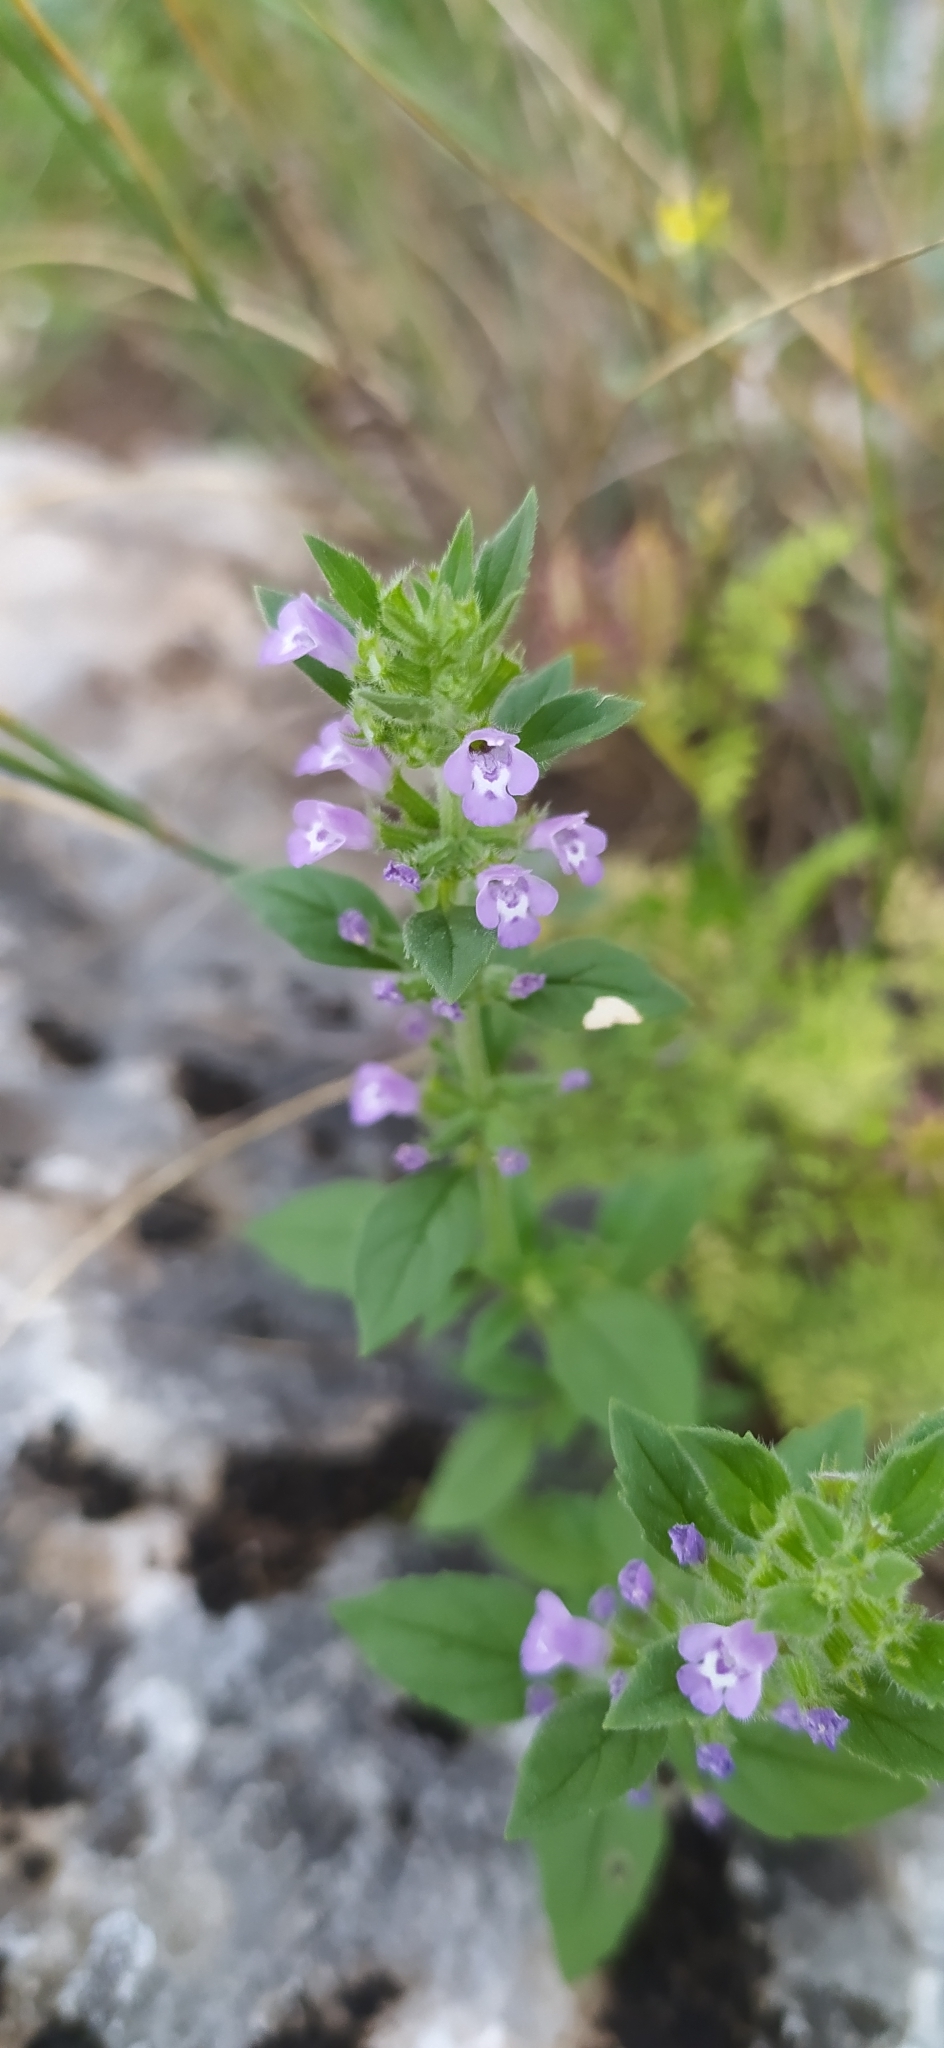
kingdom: Plantae
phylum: Tracheophyta
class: Magnoliopsida
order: Lamiales
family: Lamiaceae
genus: Clinopodium
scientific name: Clinopodium acinos
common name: Basil thyme
